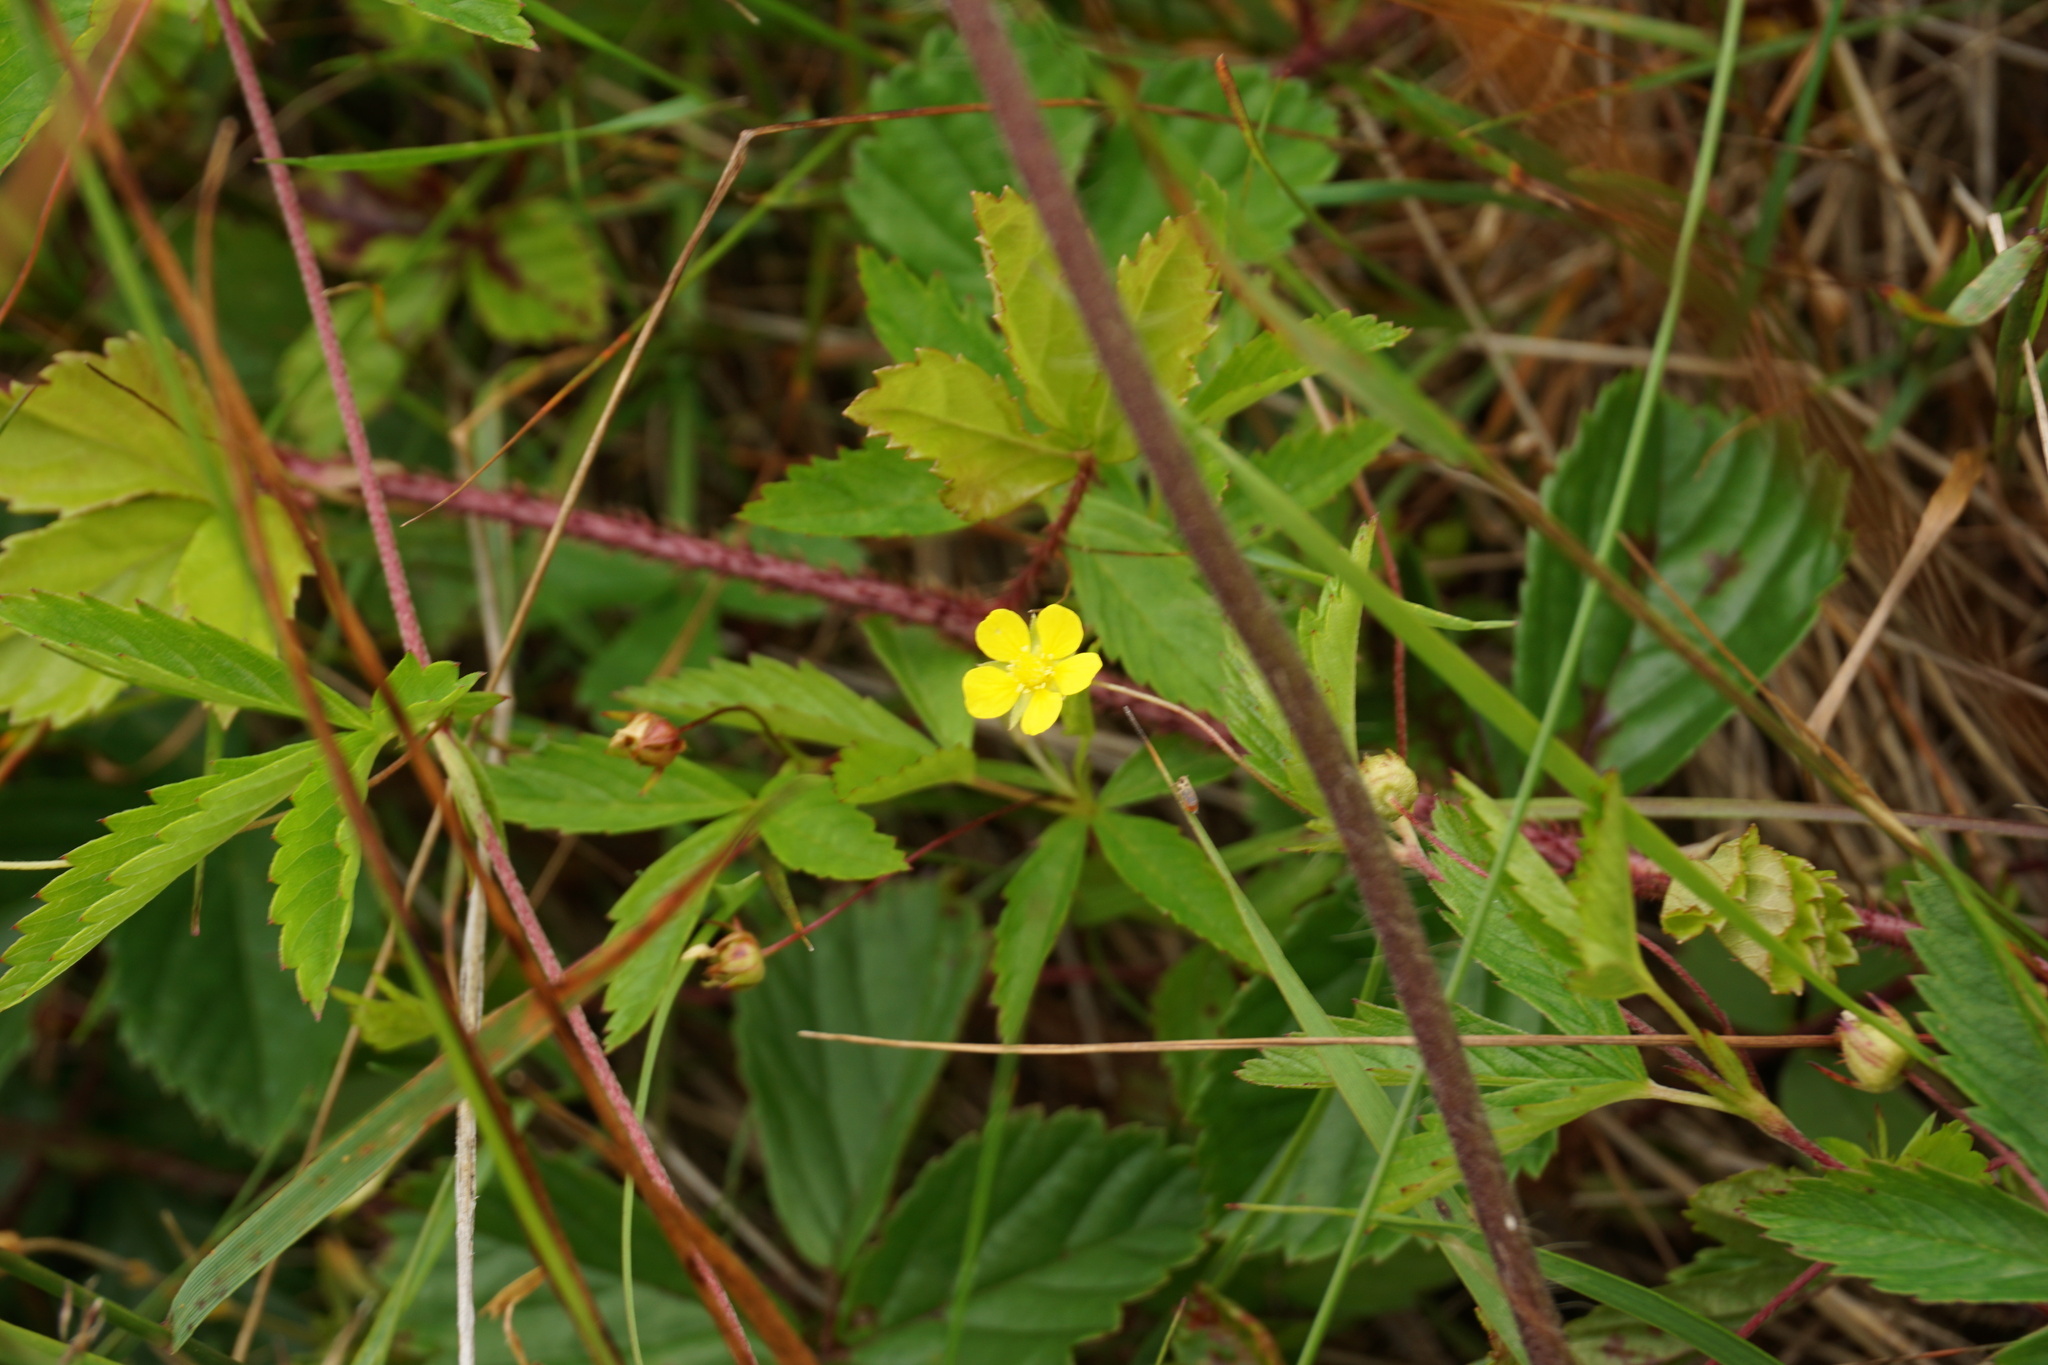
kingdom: Plantae
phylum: Tracheophyta
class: Magnoliopsida
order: Rosales
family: Rosaceae
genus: Potentilla
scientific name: Potentilla simplex
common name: Old field cinquefoil
